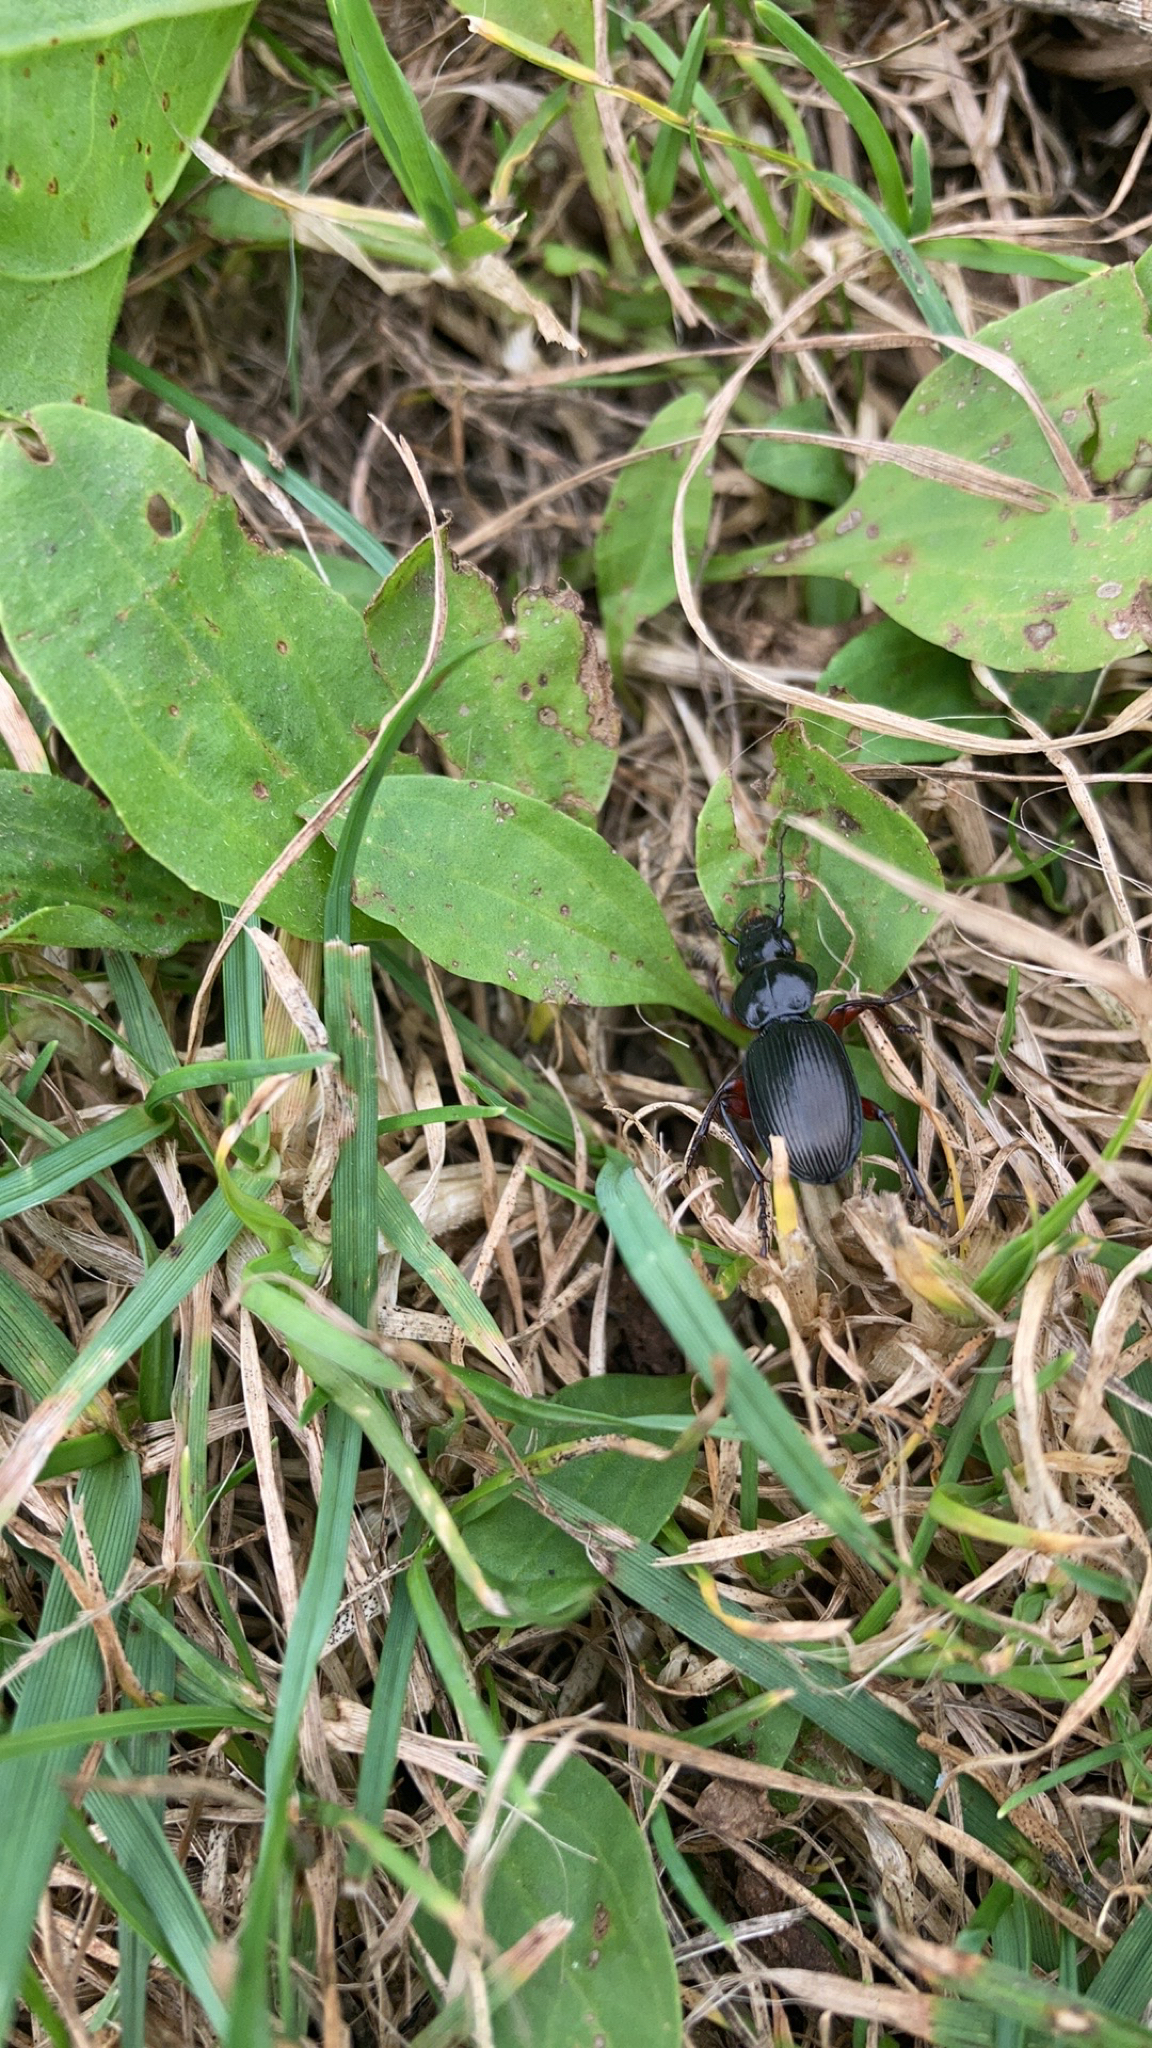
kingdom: Animalia
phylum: Arthropoda
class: Insecta
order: Coleoptera
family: Carabidae
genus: Pterostichus
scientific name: Pterostichus madidus
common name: Black clock
